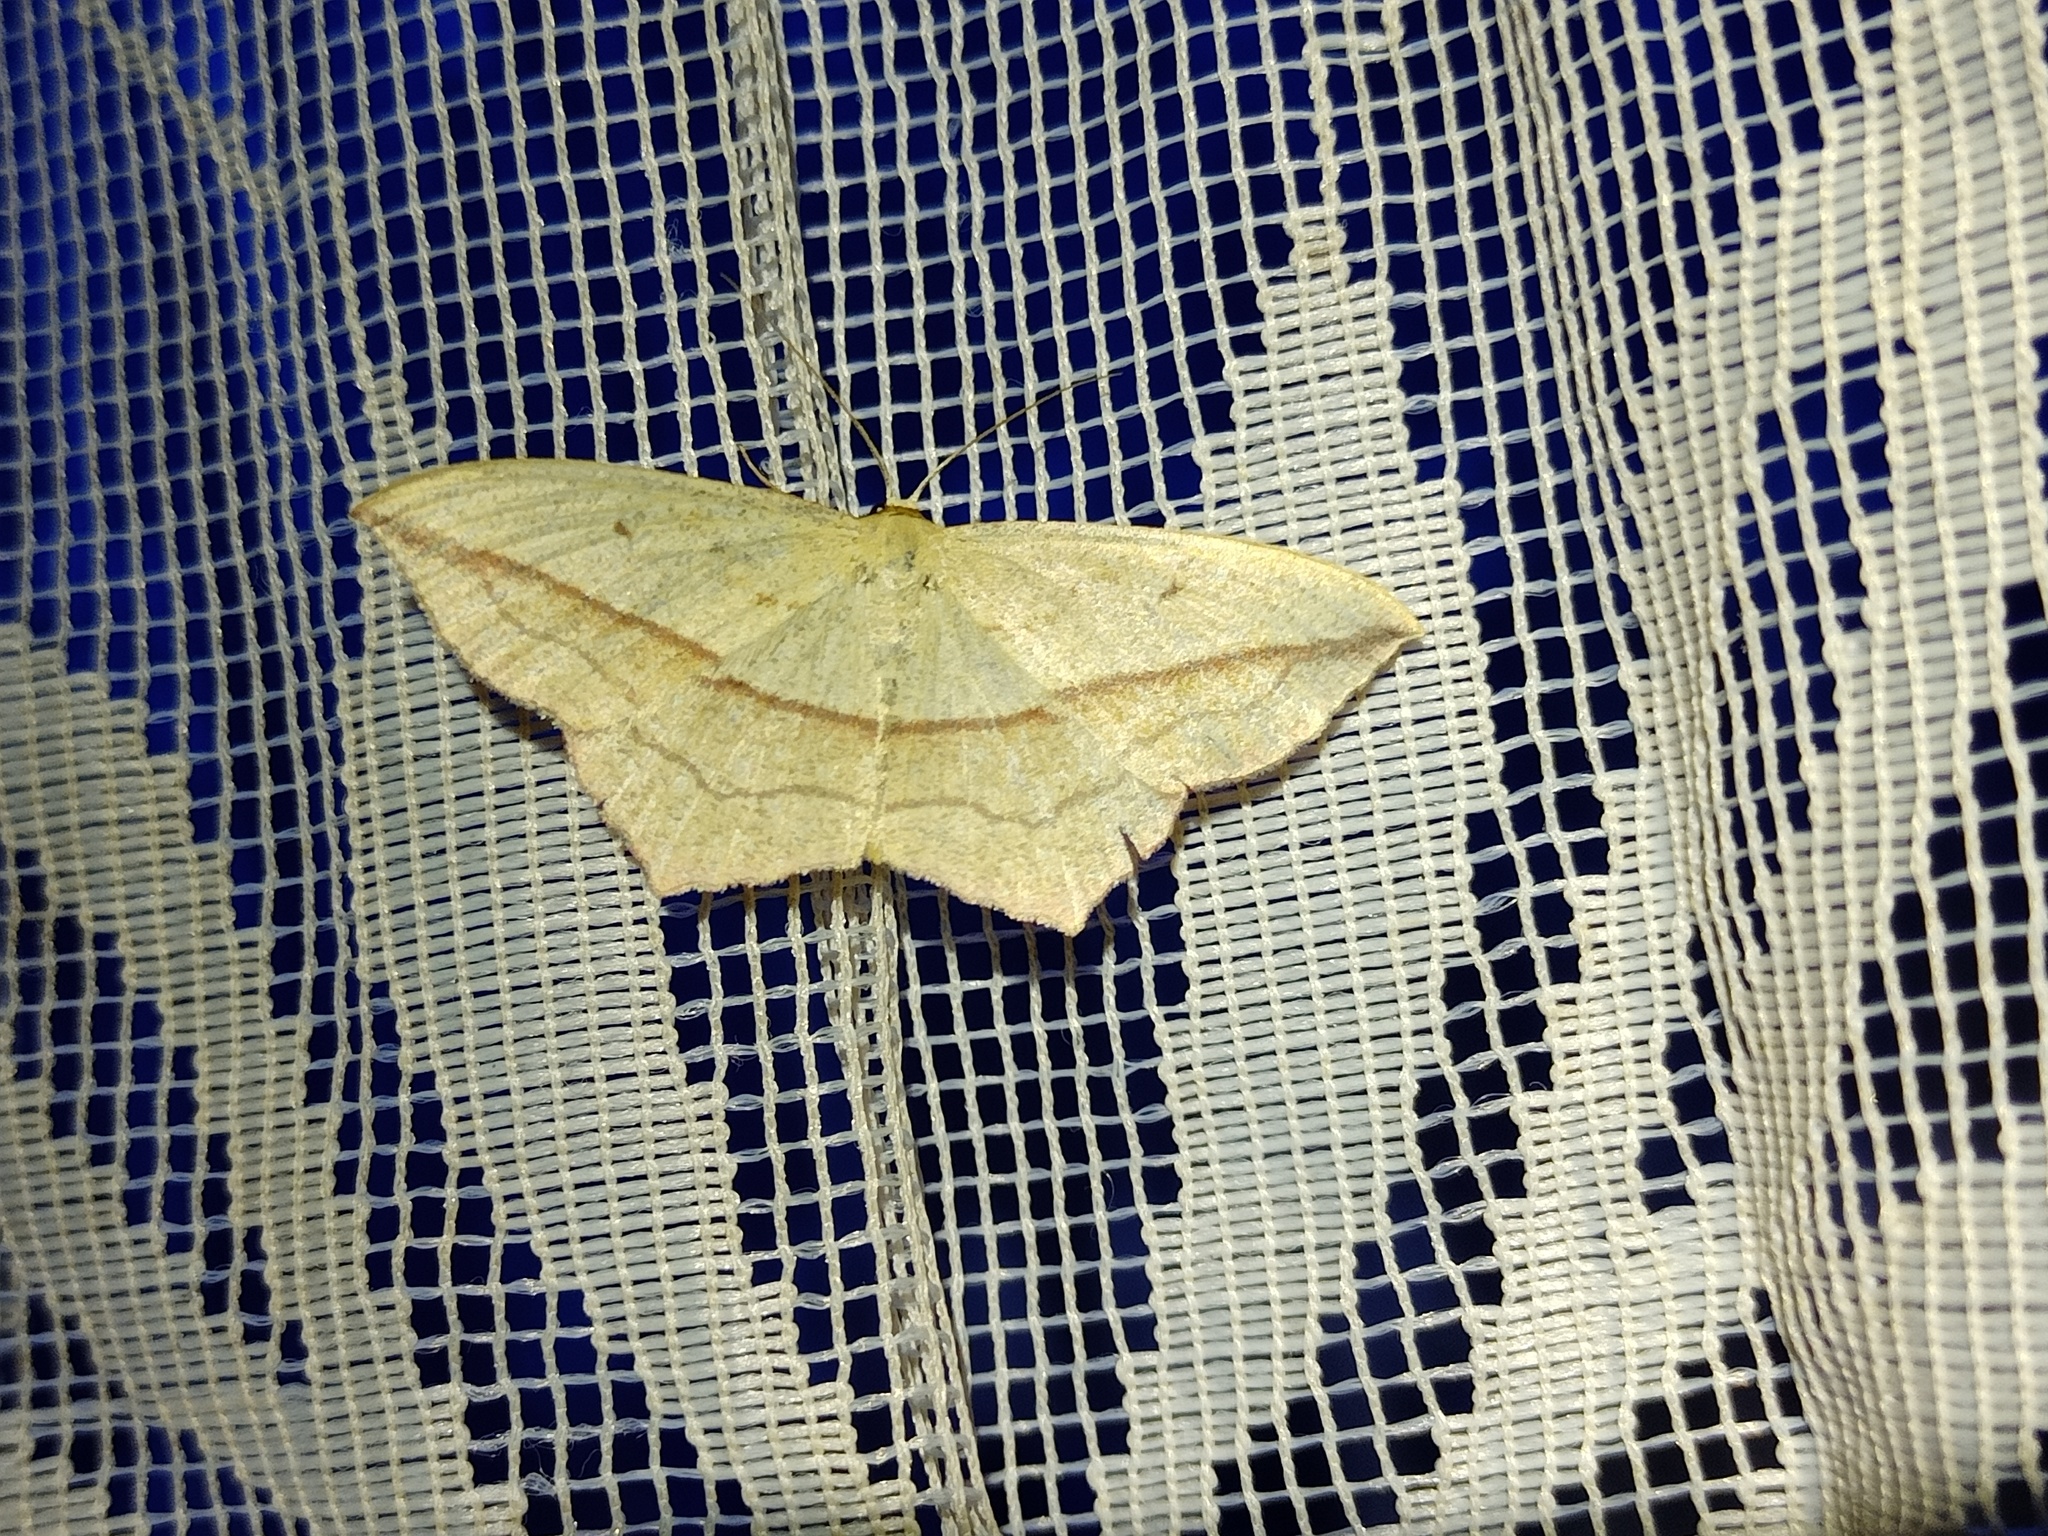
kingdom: Animalia
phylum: Arthropoda
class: Insecta
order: Lepidoptera
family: Geometridae
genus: Timandra
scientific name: Timandra comae
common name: Blood-vein
